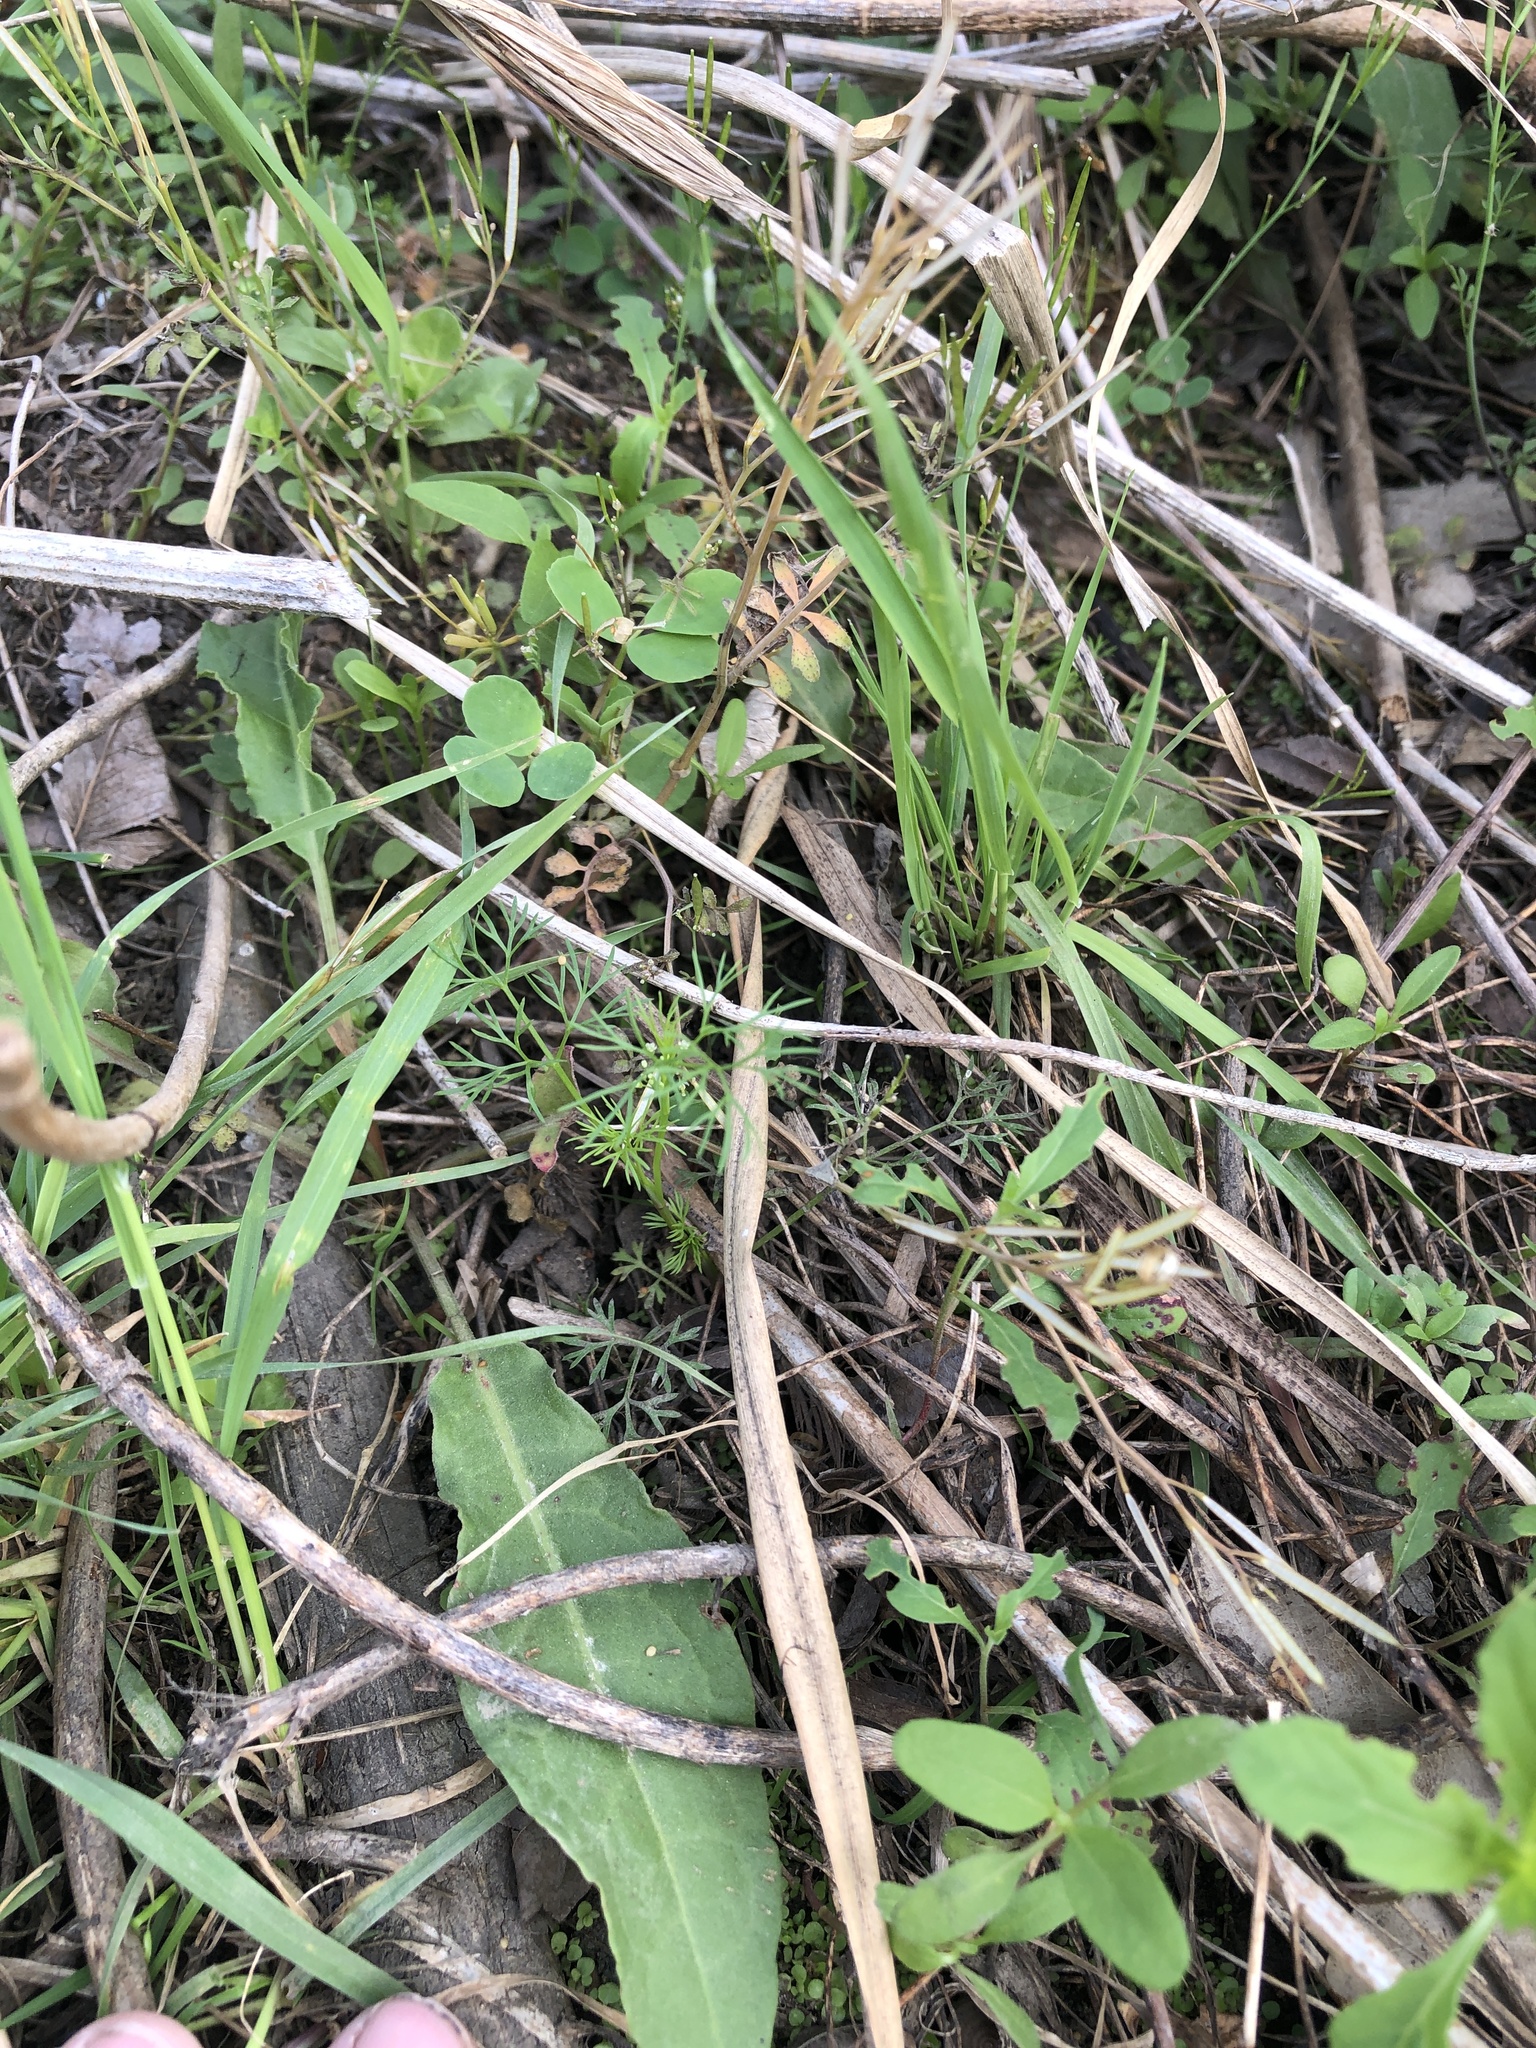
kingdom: Plantae
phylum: Tracheophyta
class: Magnoliopsida
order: Apiales
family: Apiaceae
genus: Cyclospermum
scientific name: Cyclospermum leptophyllum
